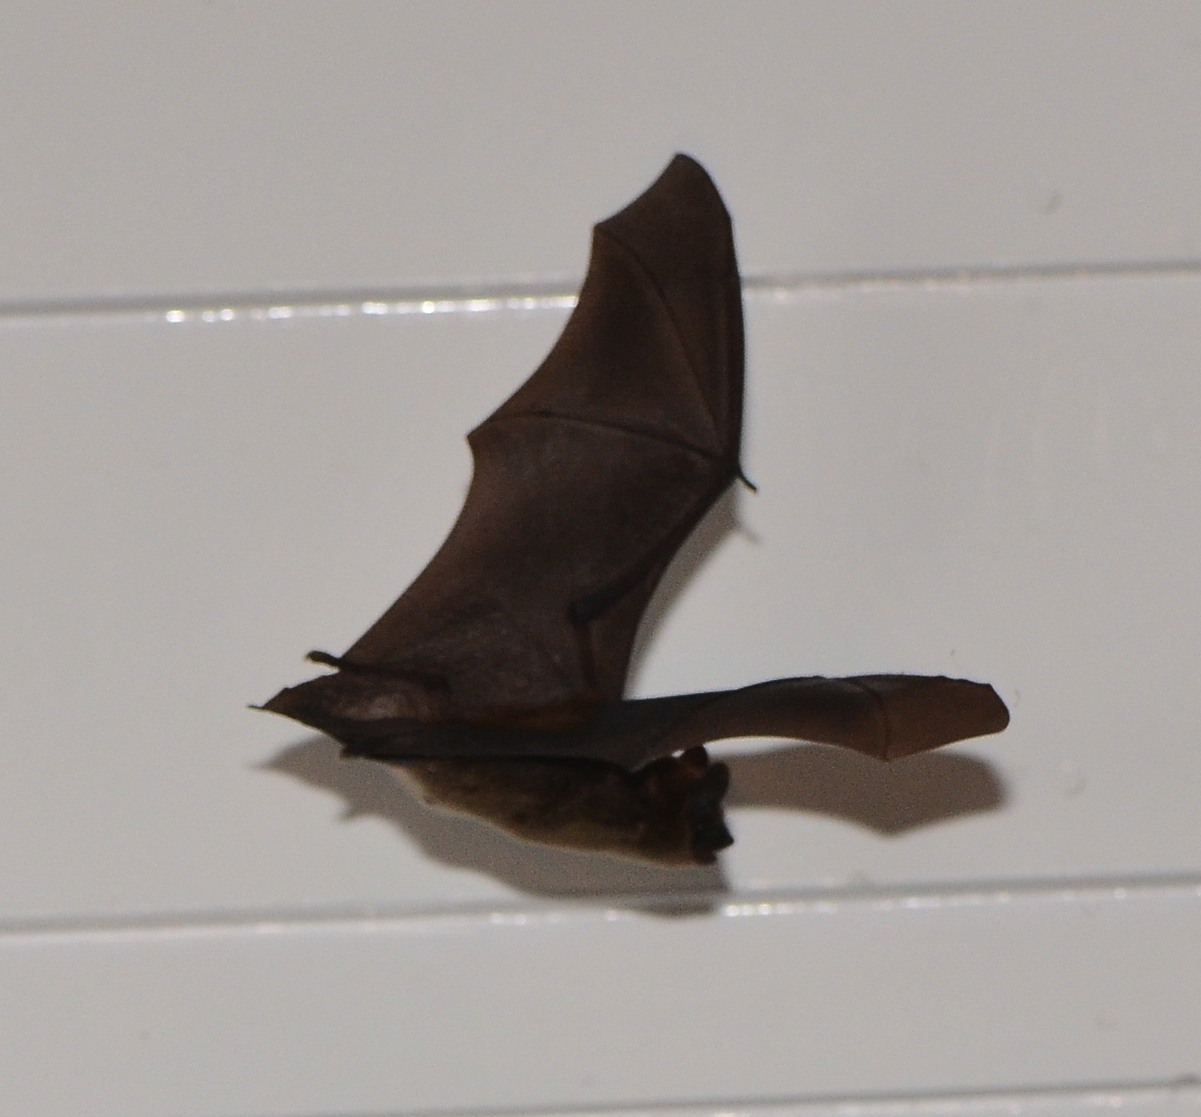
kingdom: Animalia
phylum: Chordata
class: Mammalia
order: Chiroptera
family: Vespertilionidae
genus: Eptesicus
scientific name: Eptesicus fuscus
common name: Big brown bat
